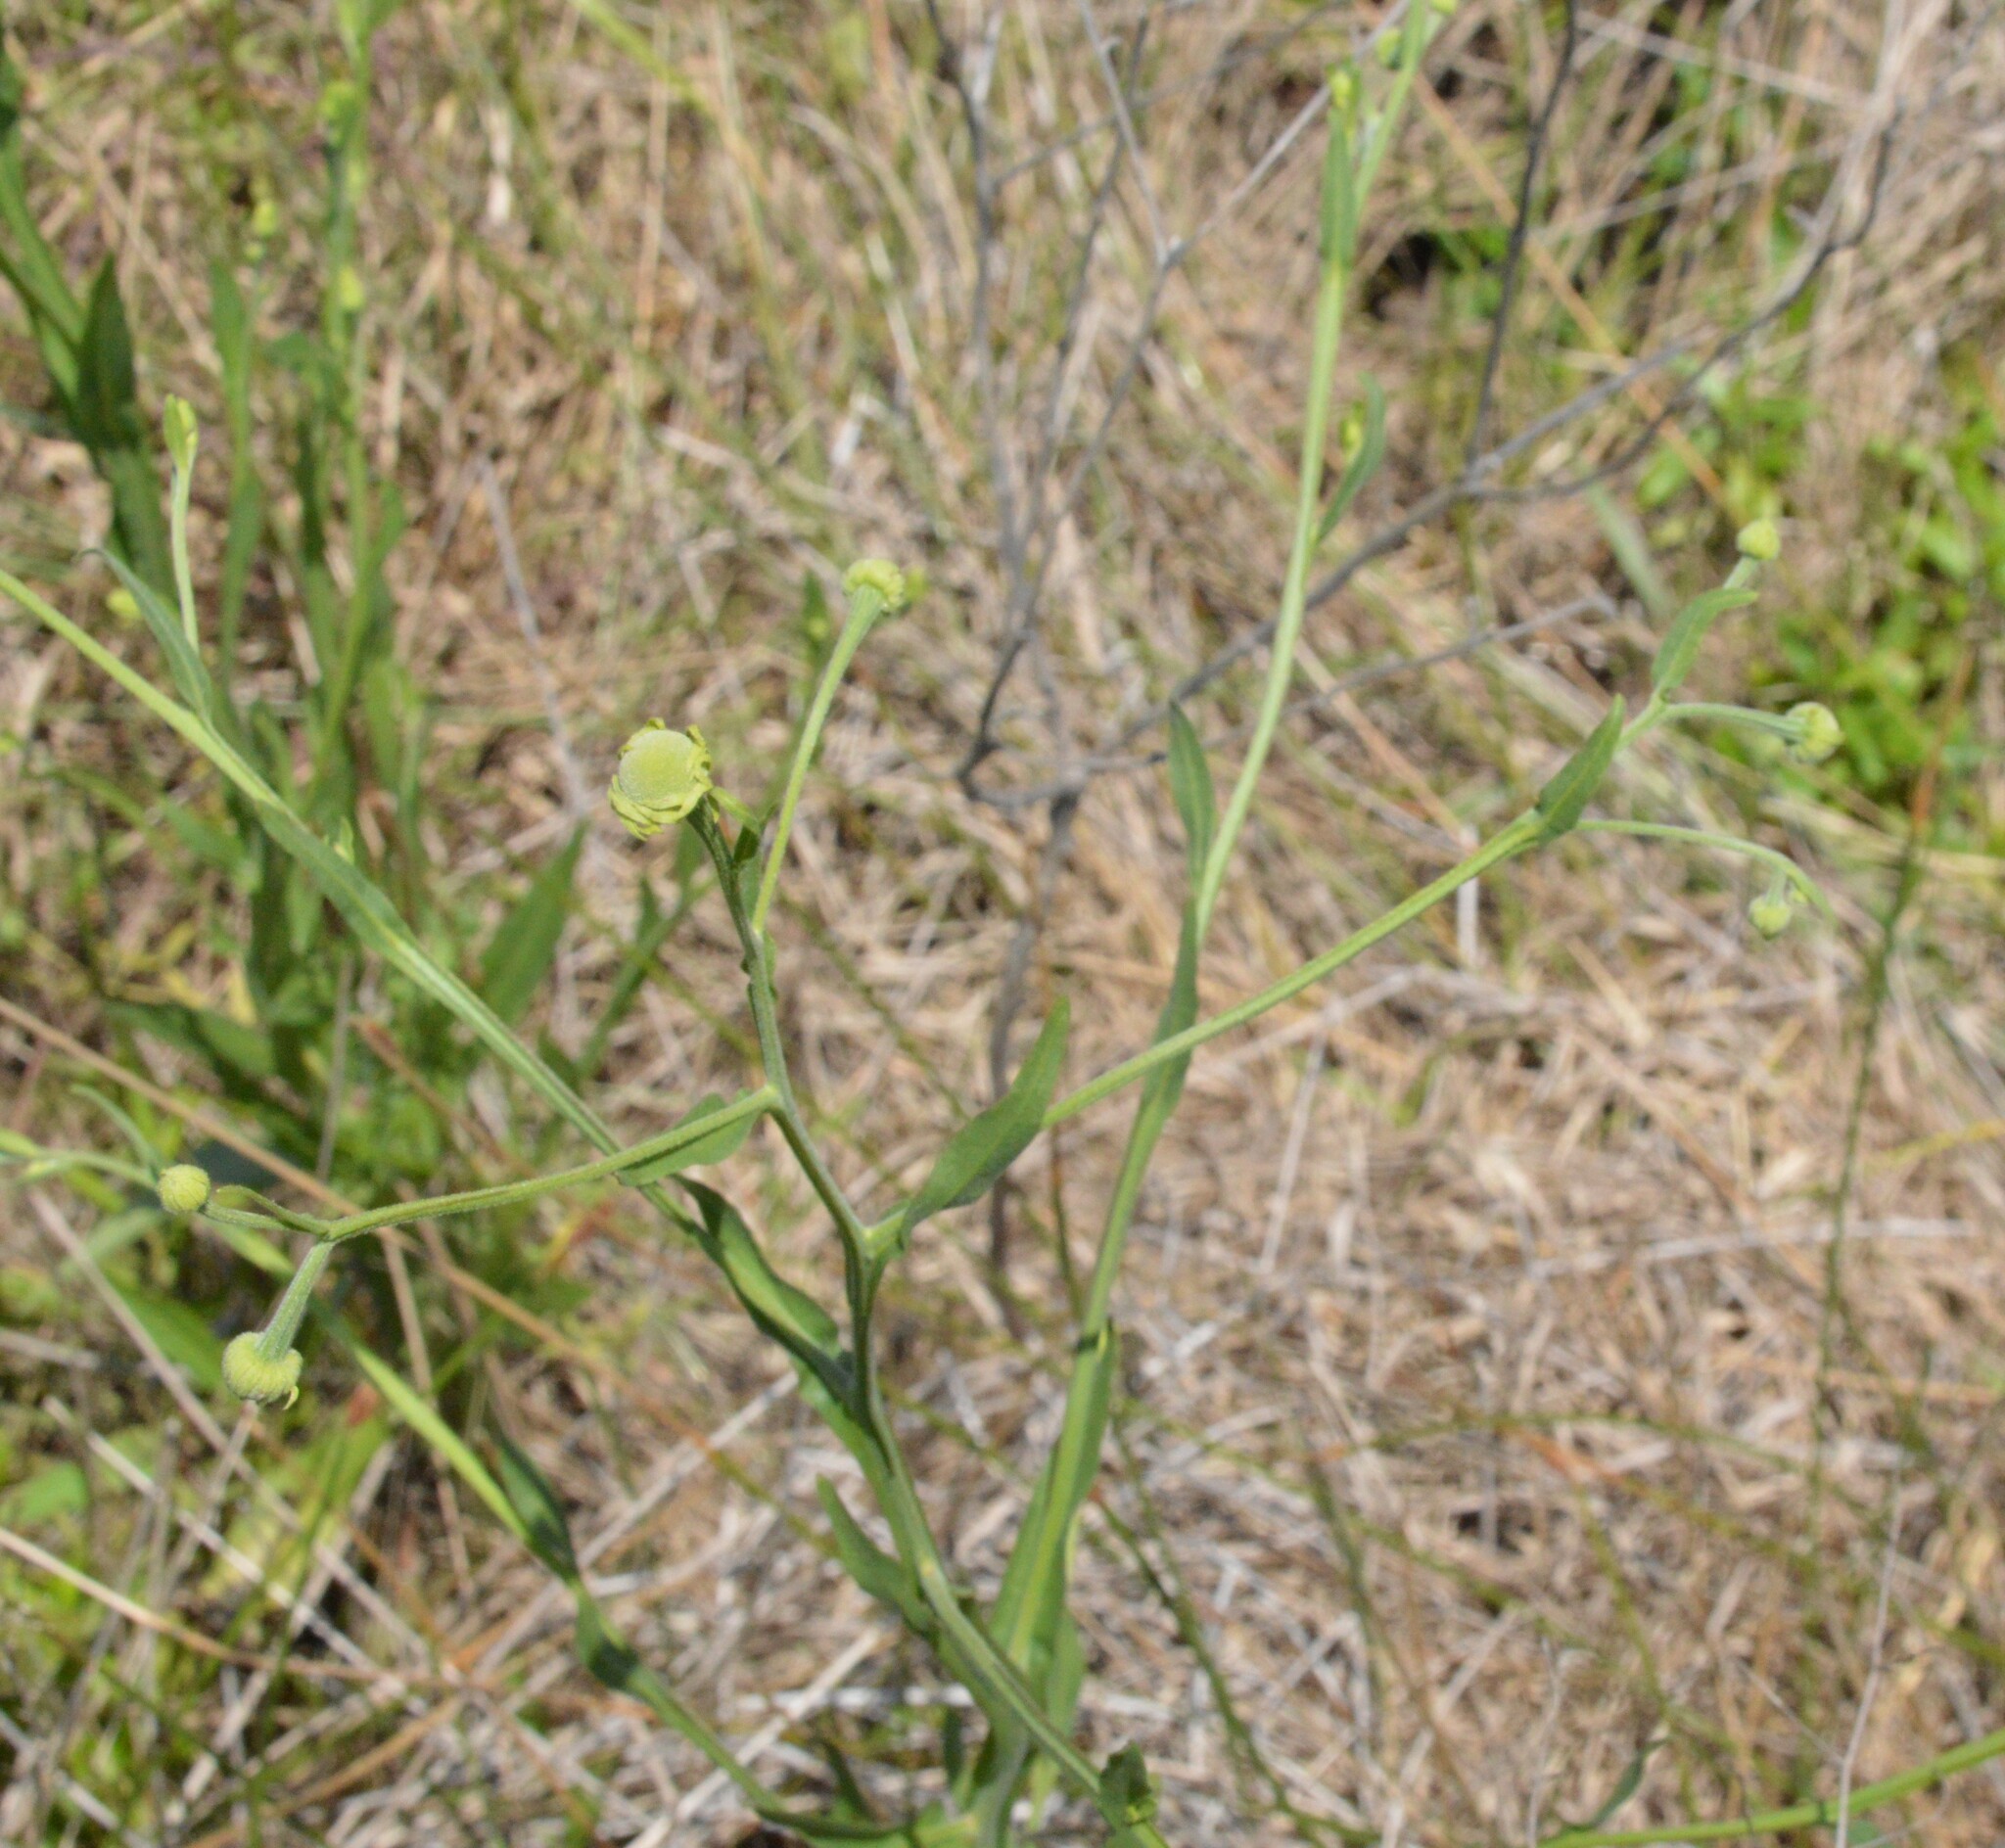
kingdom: Plantae
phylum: Tracheophyta
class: Magnoliopsida
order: Asterales
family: Asteraceae
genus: Helenium
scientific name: Helenium flexuosum
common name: Naked-flowered sneezeweed
